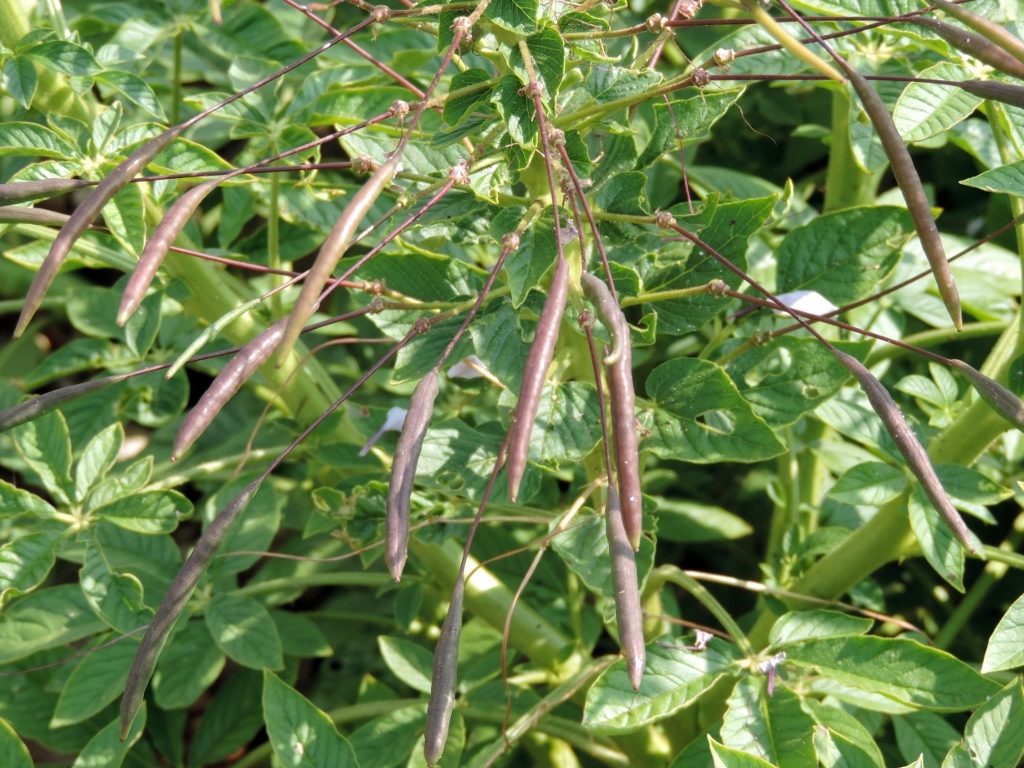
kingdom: Plantae
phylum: Tracheophyta
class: Magnoliopsida
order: Brassicales
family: Cleomaceae
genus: Tarenaya
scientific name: Tarenaya houtteana
